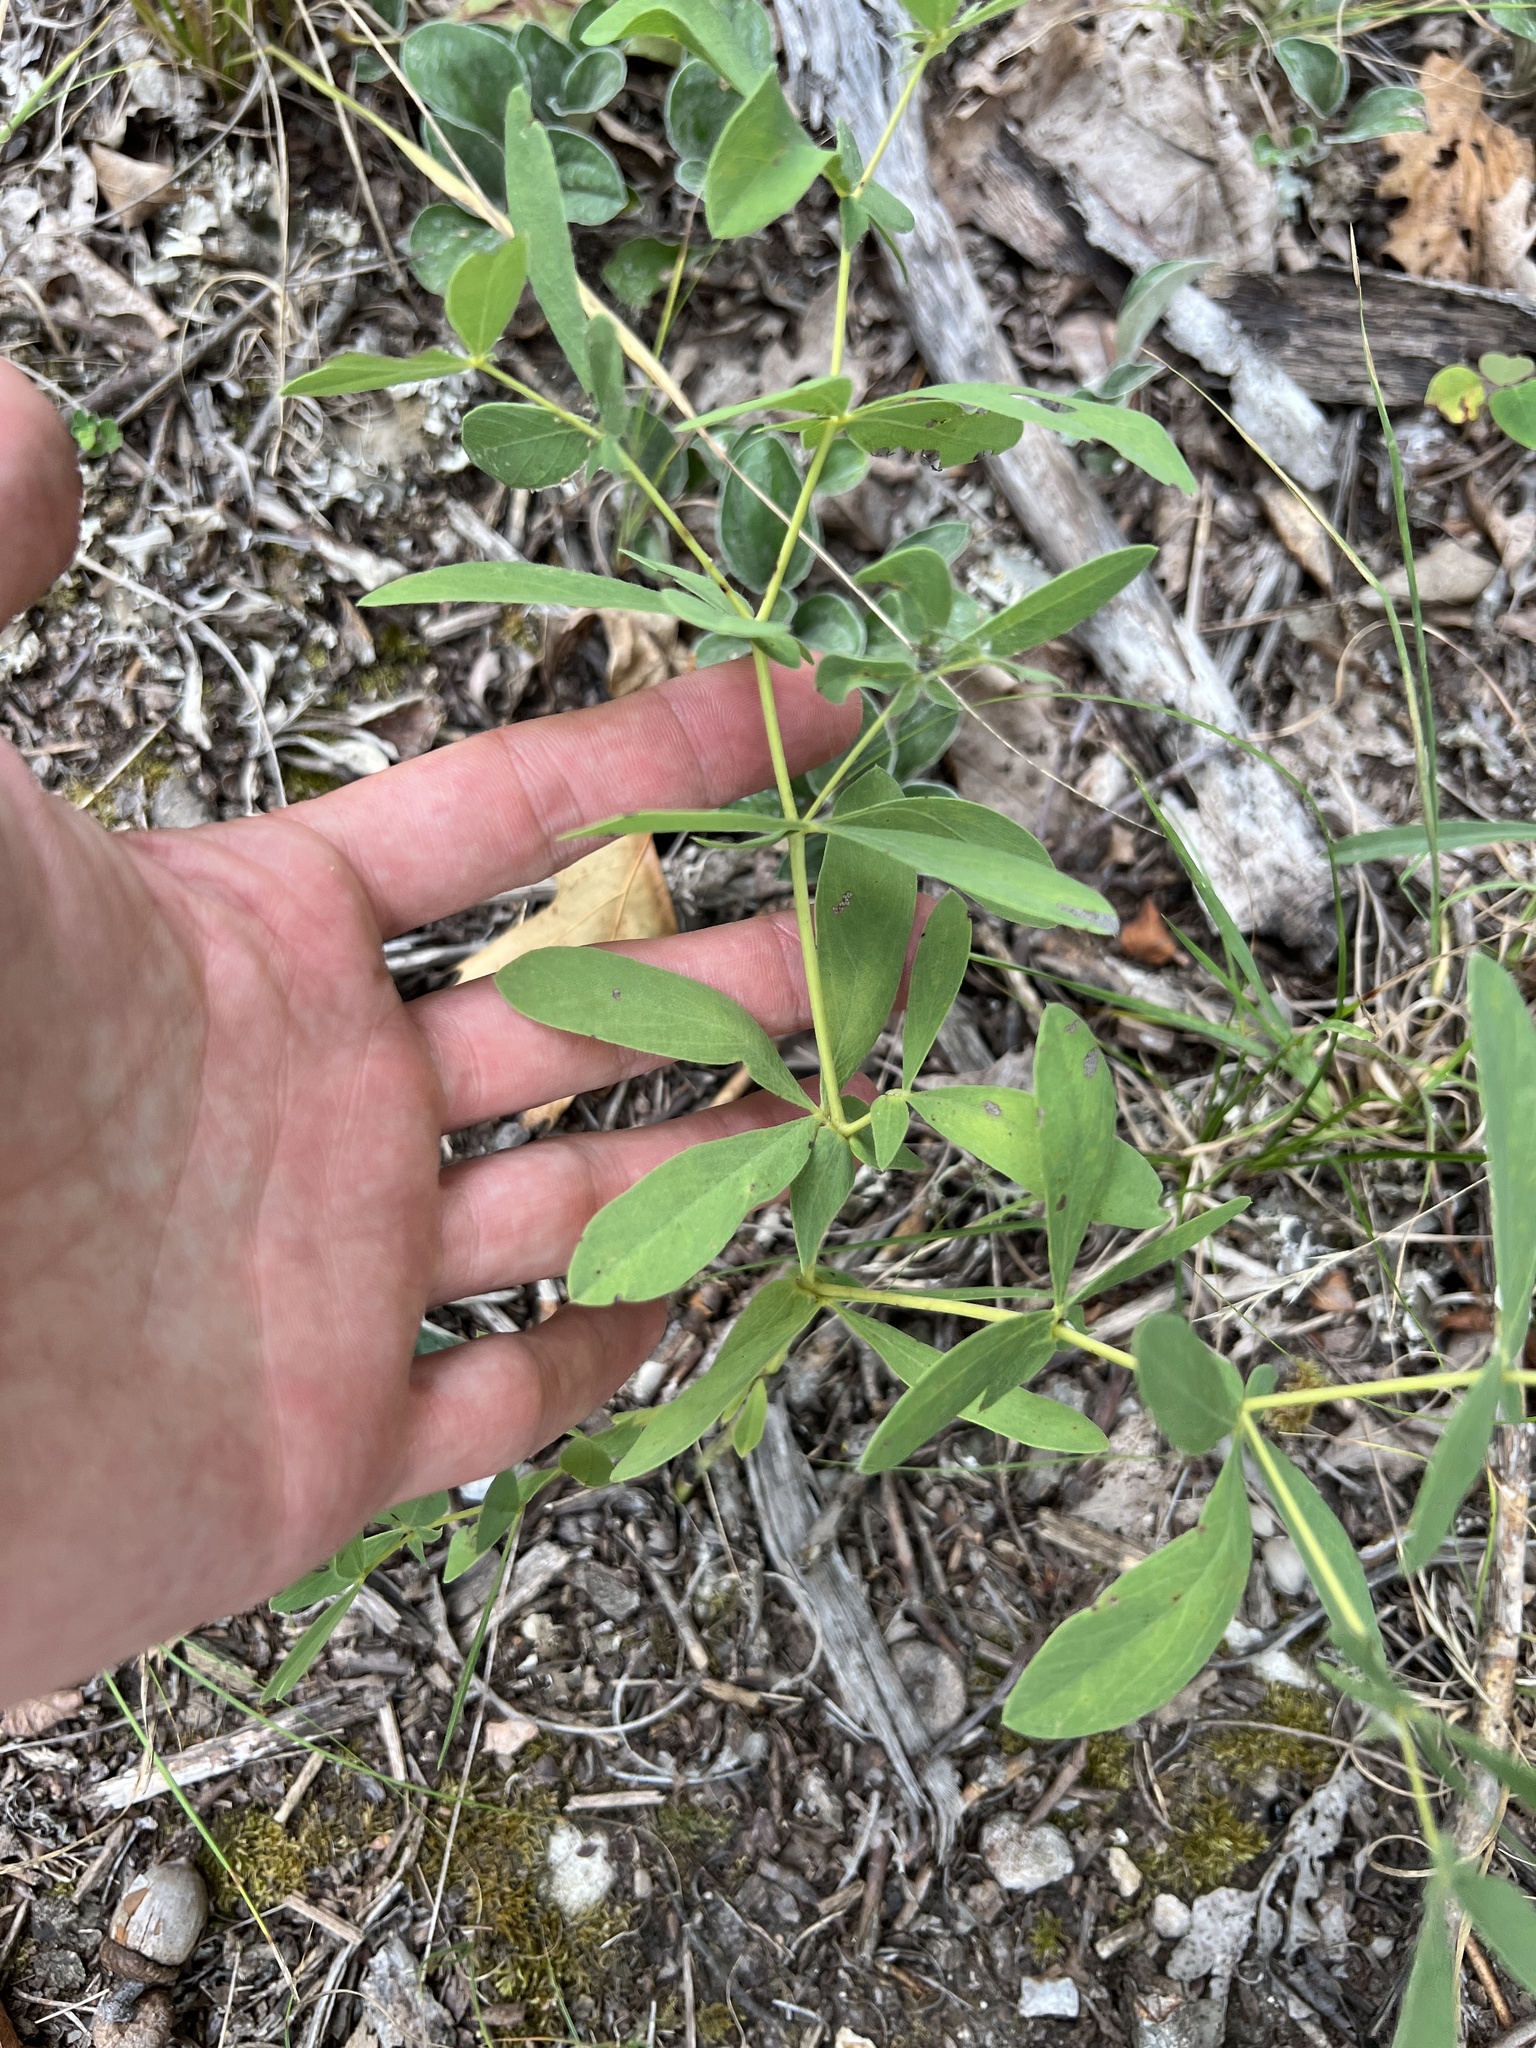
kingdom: Plantae
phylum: Tracheophyta
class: Magnoliopsida
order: Fabales
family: Fabaceae
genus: Baptisia
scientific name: Baptisia bracteata
